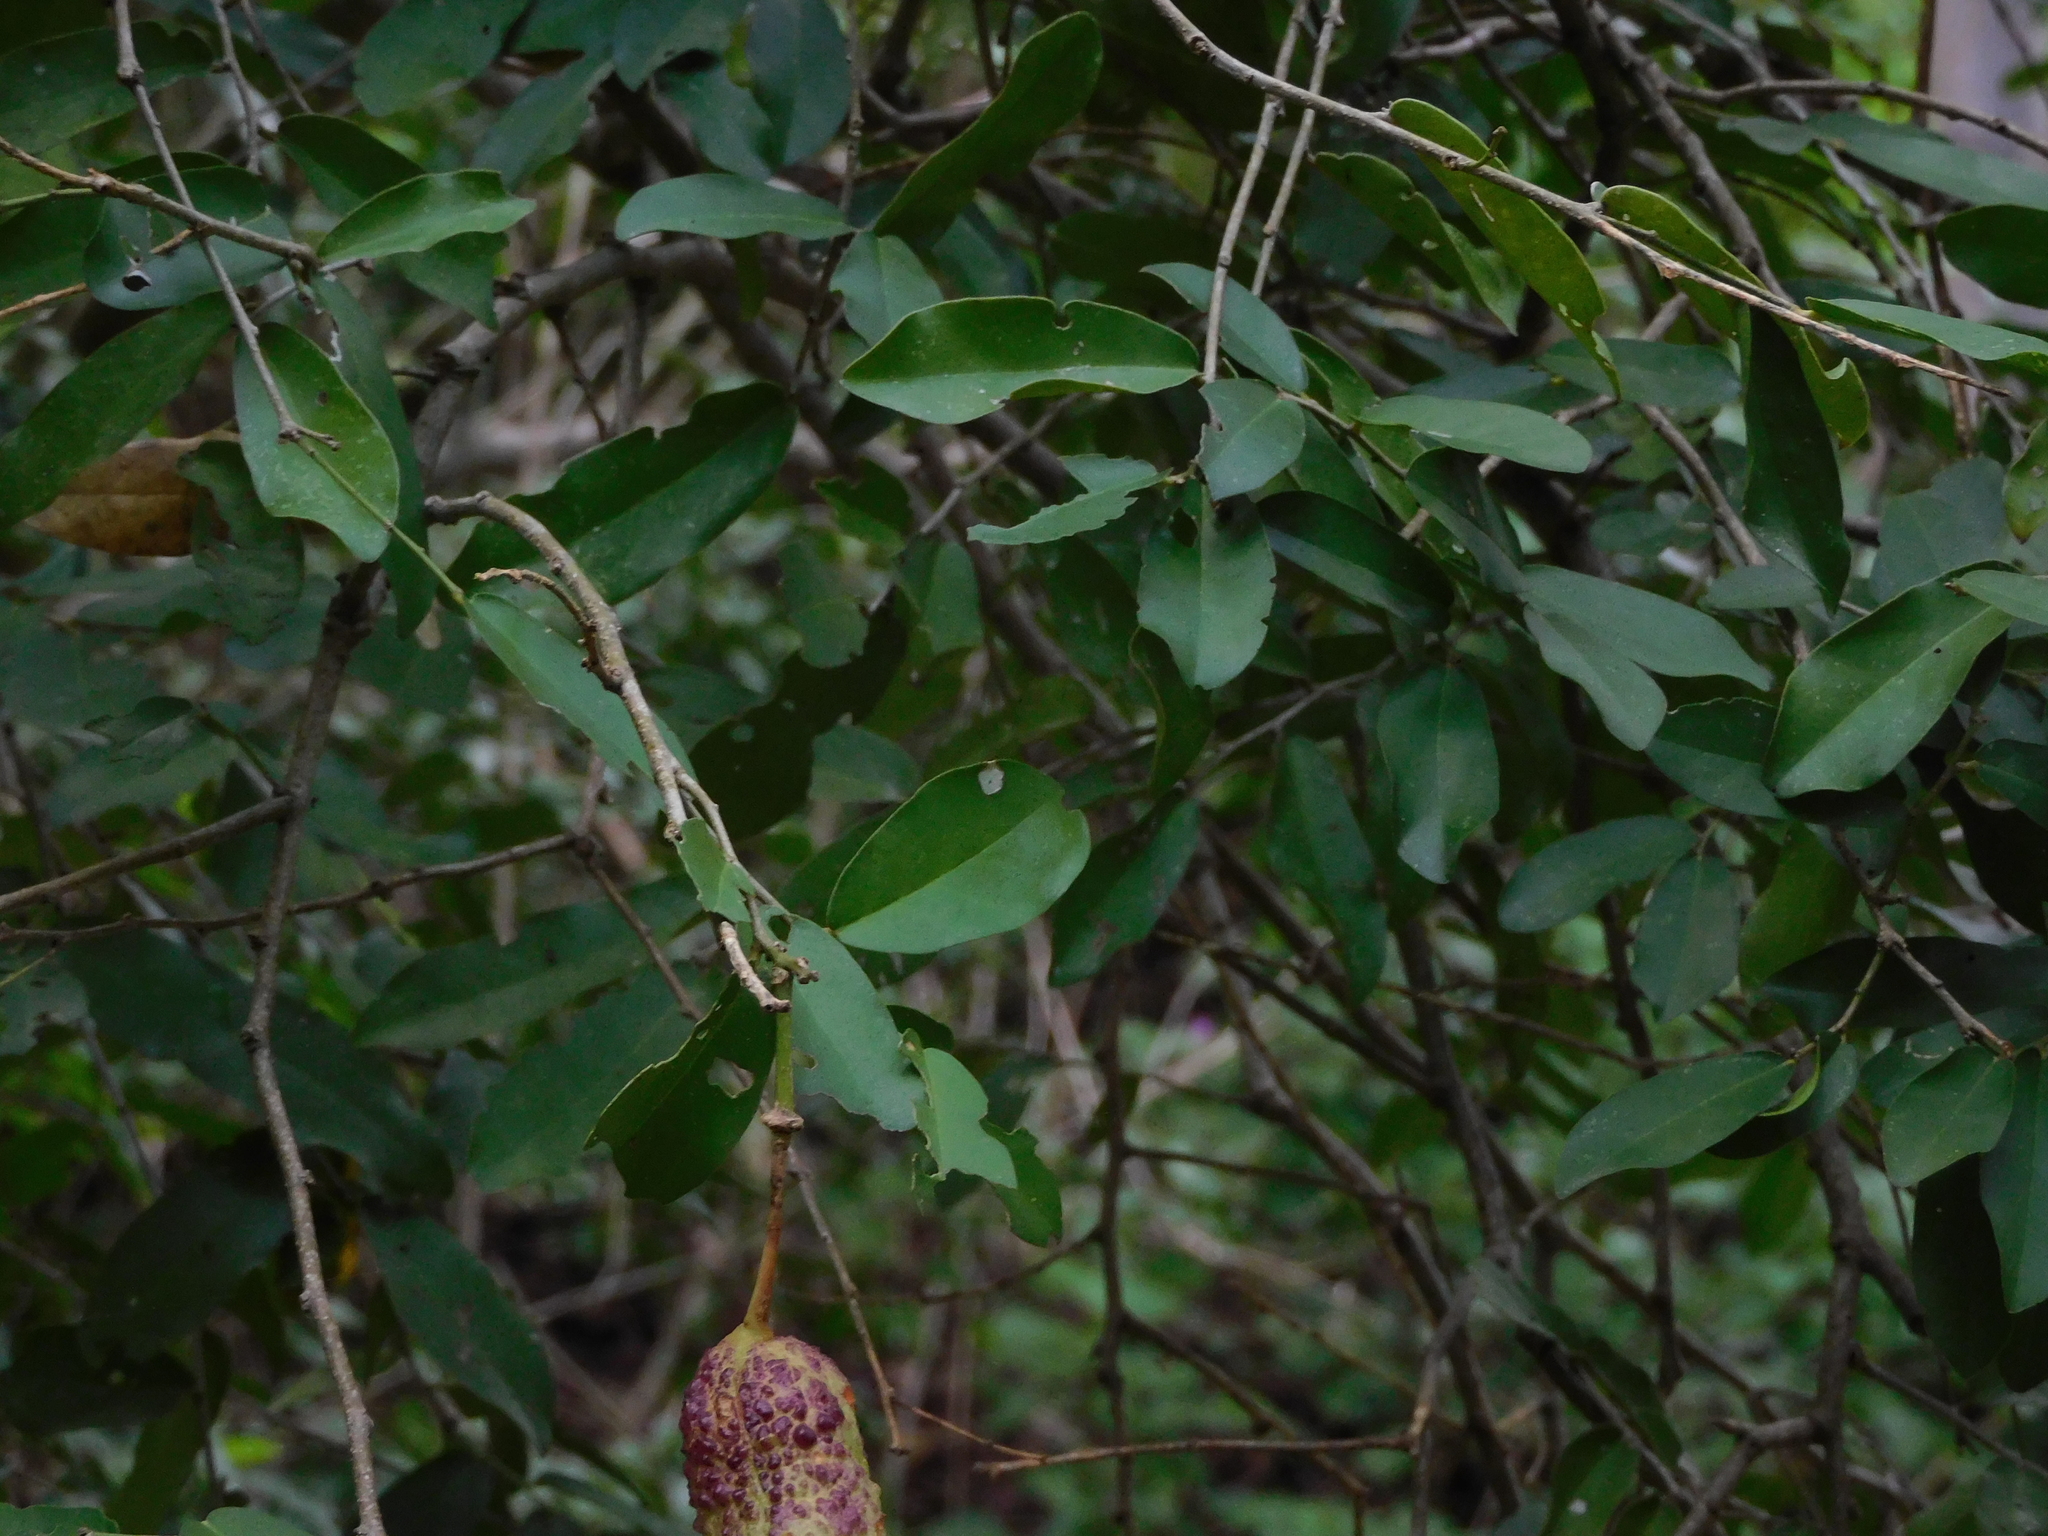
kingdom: Plantae
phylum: Tracheophyta
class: Magnoliopsida
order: Brassicales
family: Capparaceae
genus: Cynophalla
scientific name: Cynophalla verrucosa
